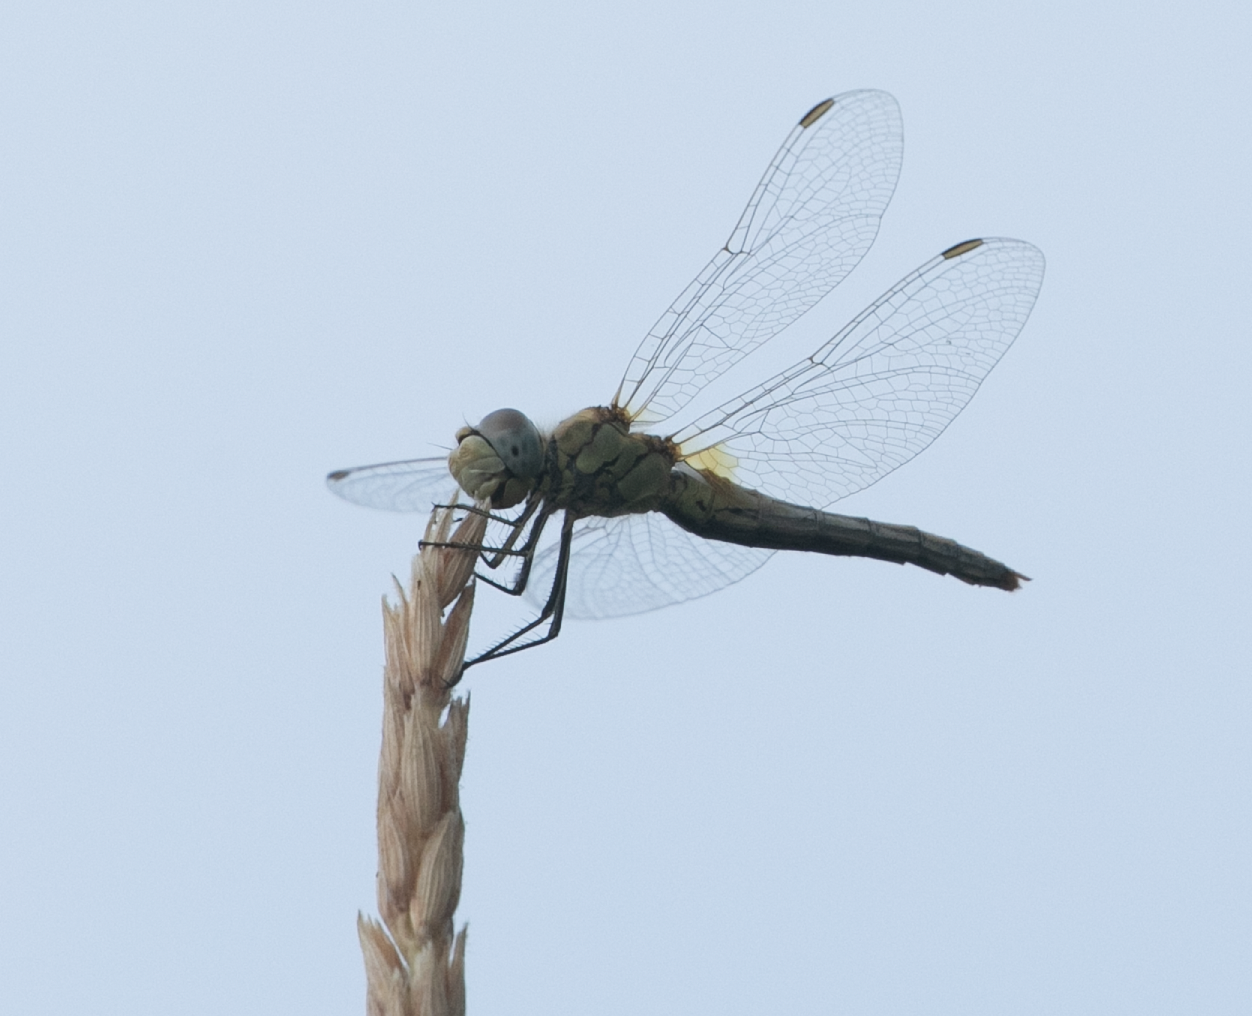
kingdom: Animalia
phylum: Arthropoda
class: Insecta
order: Odonata
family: Libellulidae
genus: Sympetrum
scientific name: Sympetrum fonscolombii
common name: Red-veined darter
